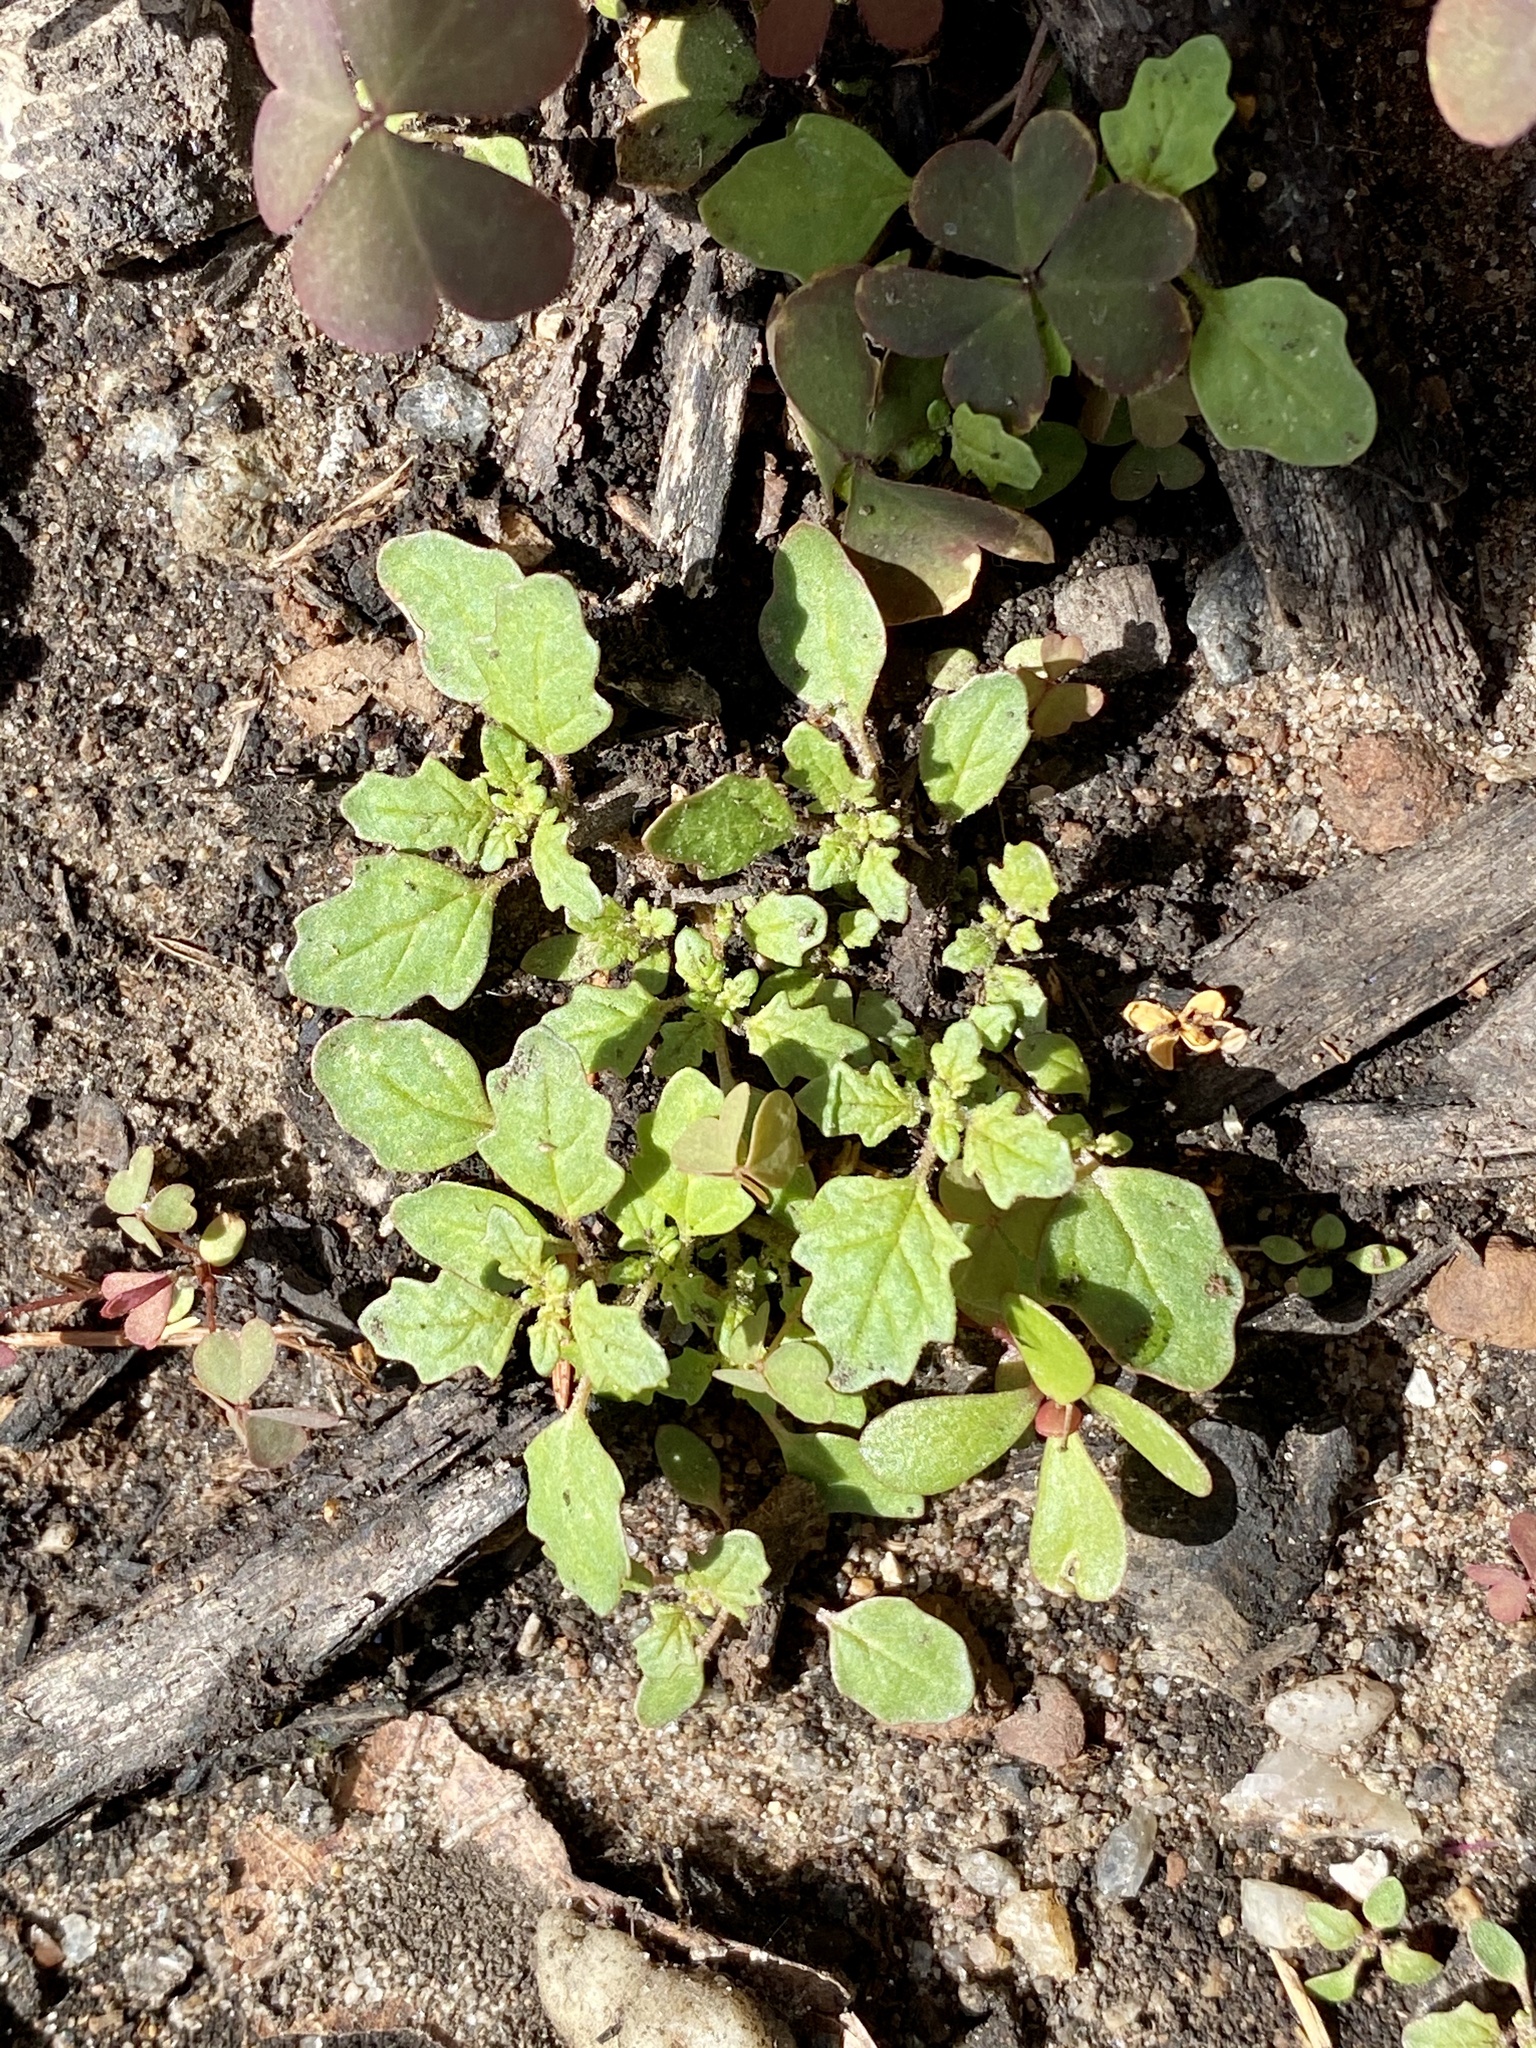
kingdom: Plantae
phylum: Tracheophyta
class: Magnoliopsida
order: Caryophyllales
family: Amaranthaceae
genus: Dysphania
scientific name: Dysphania pumilio
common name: Clammy goosefoot
